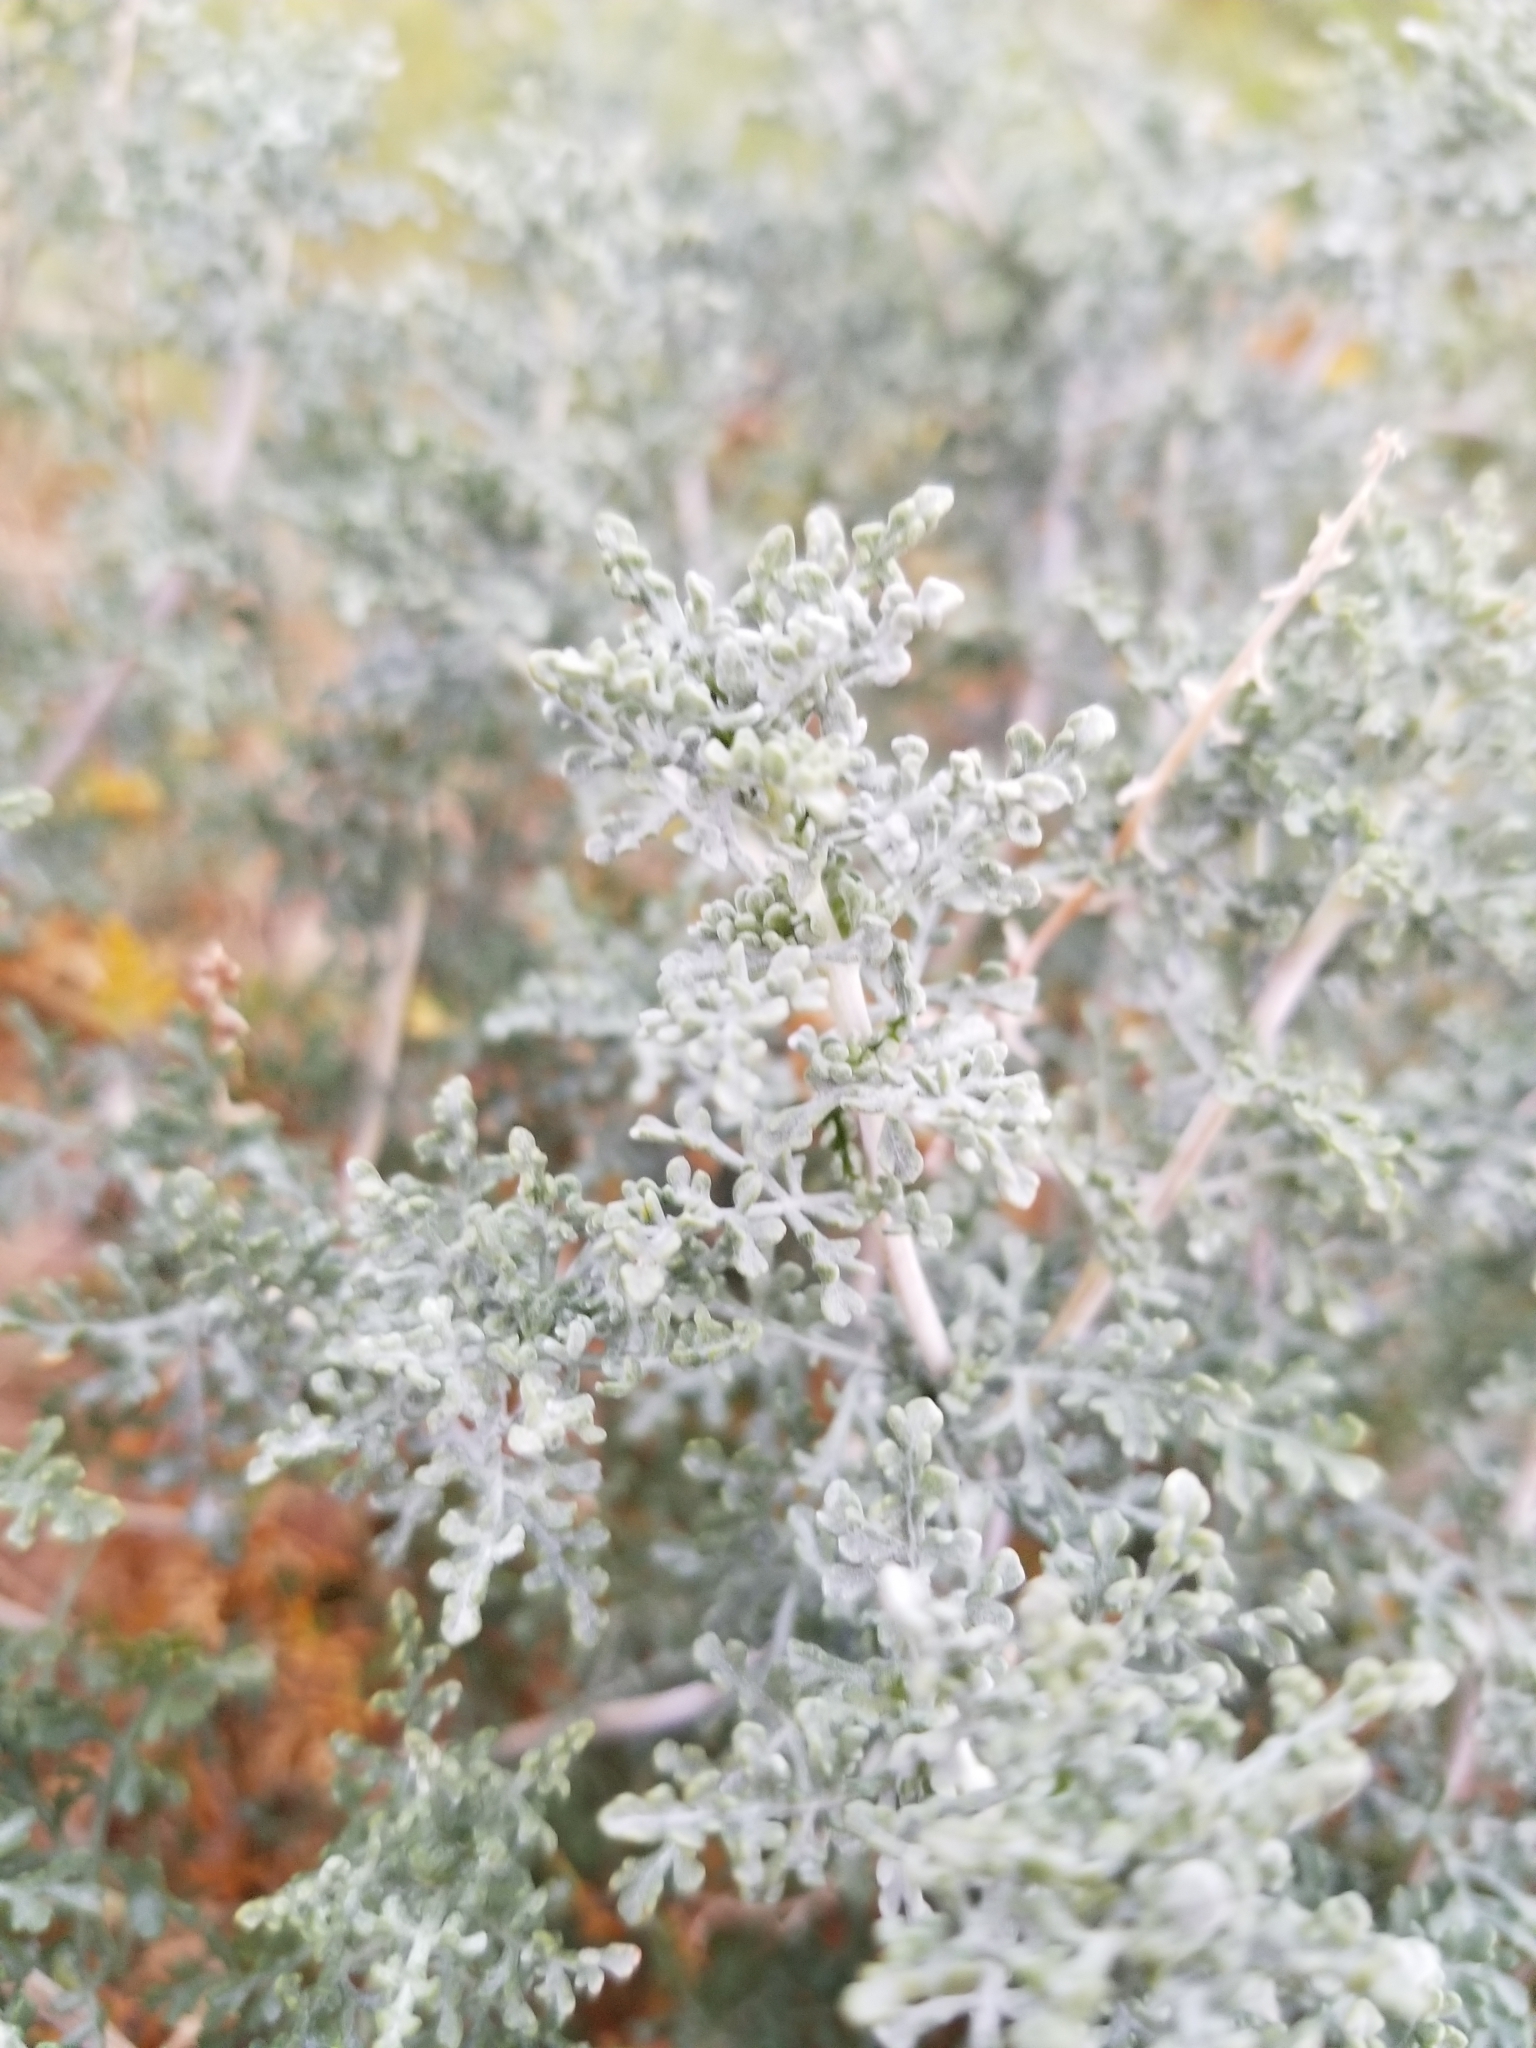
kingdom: Plantae
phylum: Tracheophyta
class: Magnoliopsida
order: Asterales
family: Asteraceae
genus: Ambrosia
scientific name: Ambrosia dumosa
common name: Bur-sage
